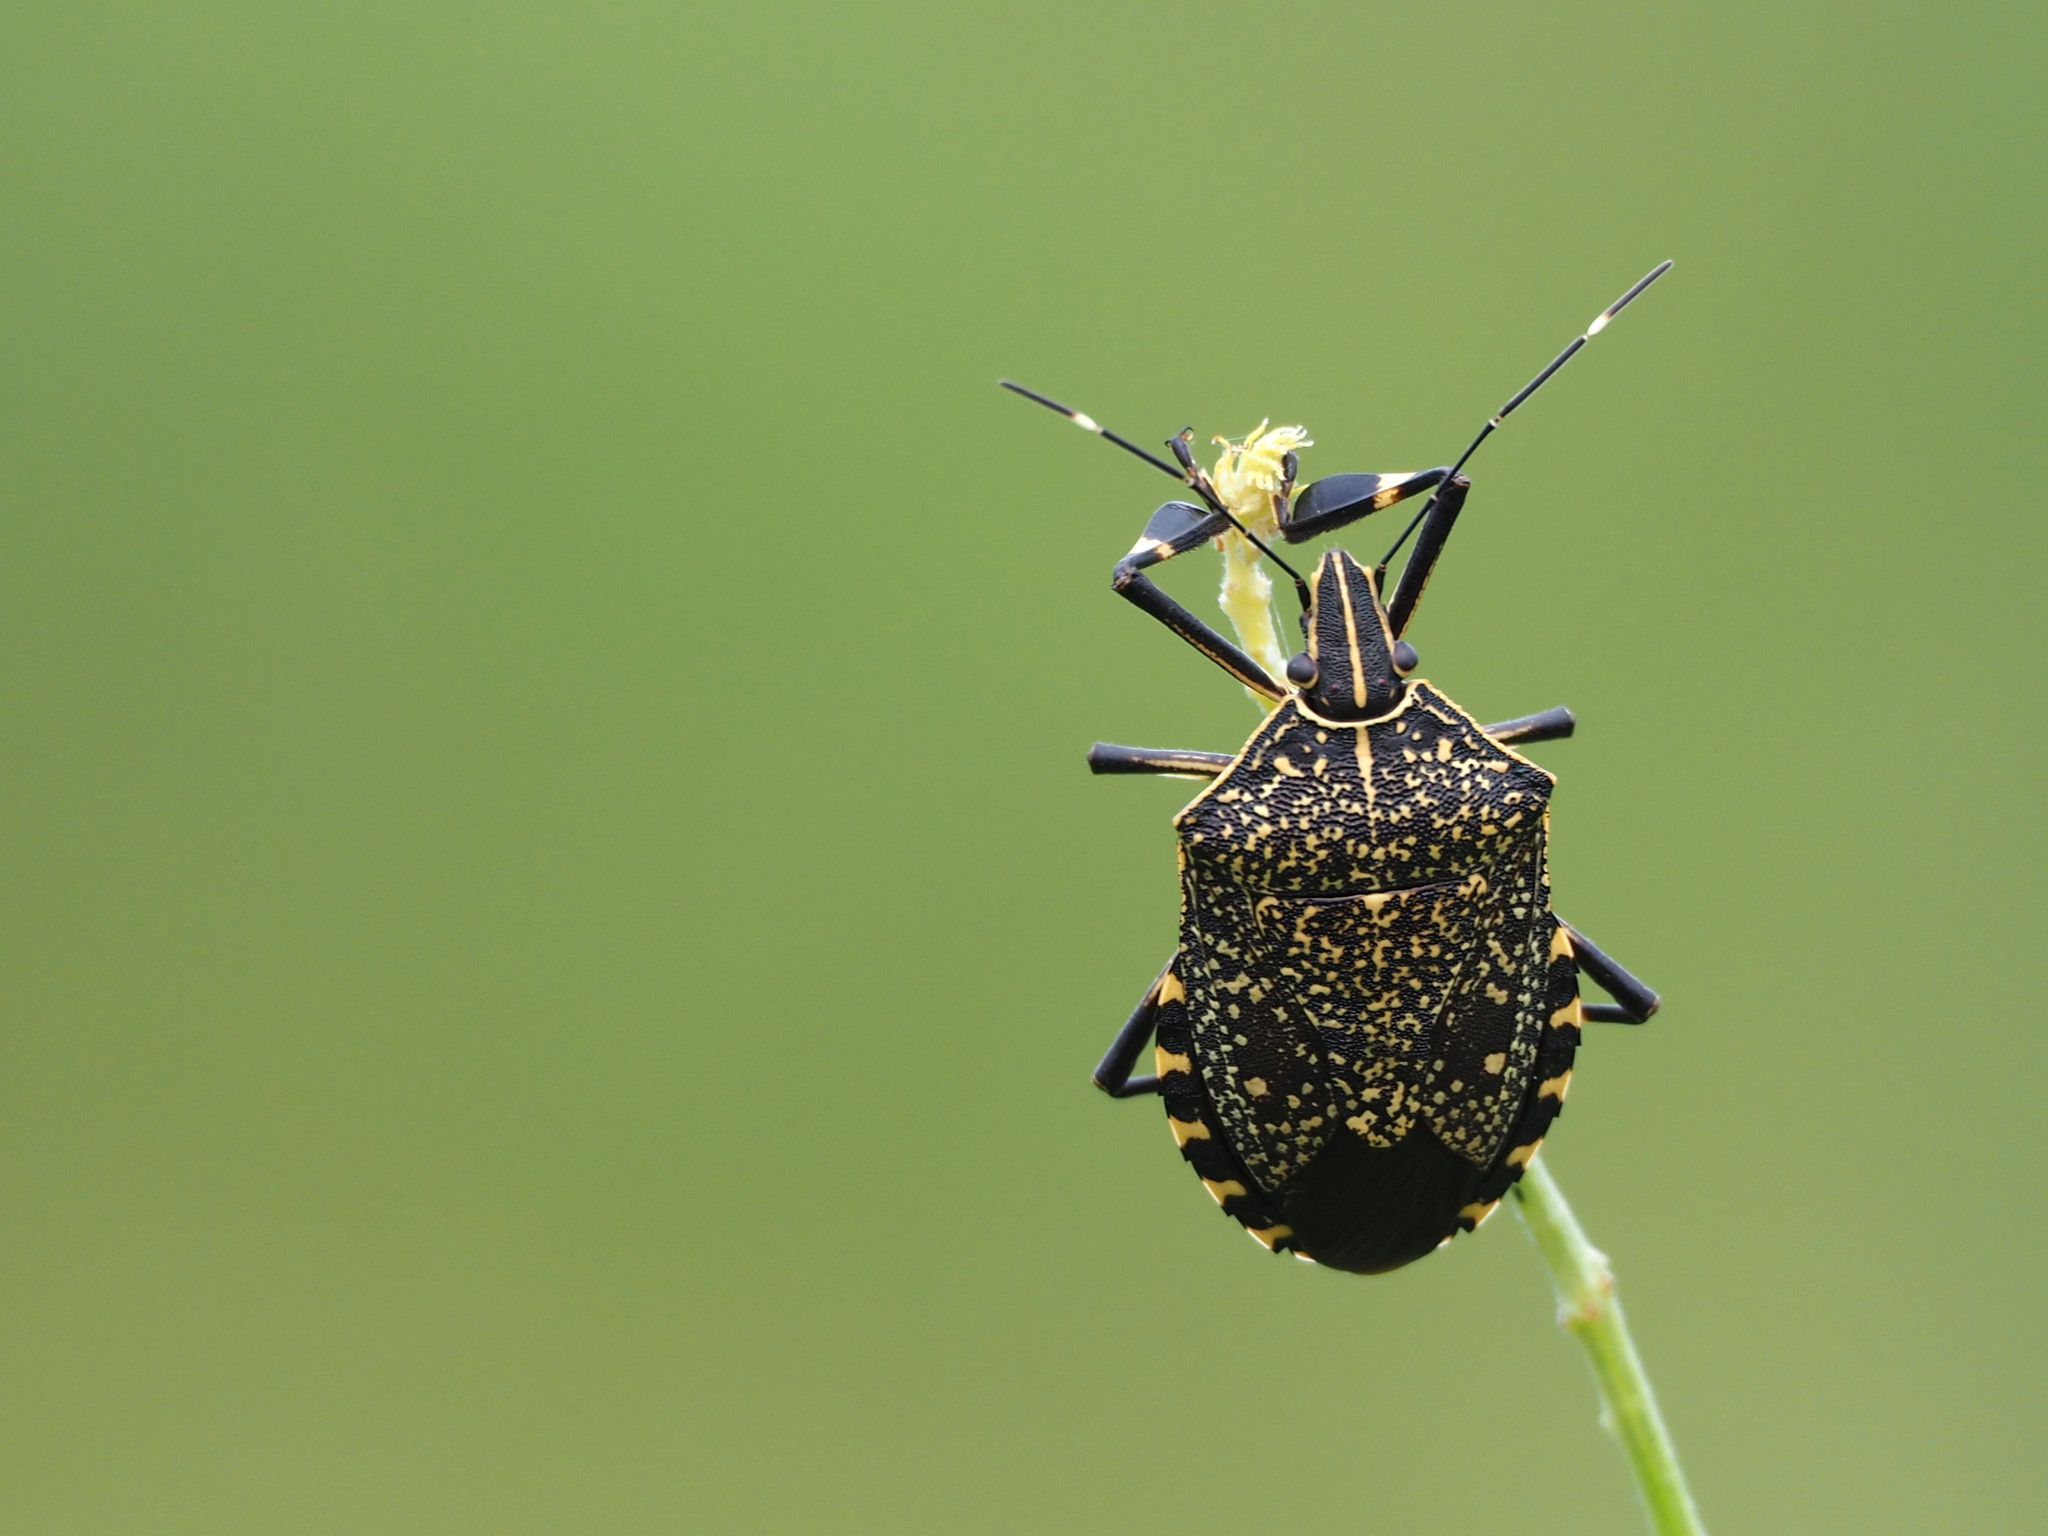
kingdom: Animalia
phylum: Arthropoda
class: Insecta
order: Hemiptera
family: Pentatomidae
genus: Erthesina
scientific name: Erthesina fullo
